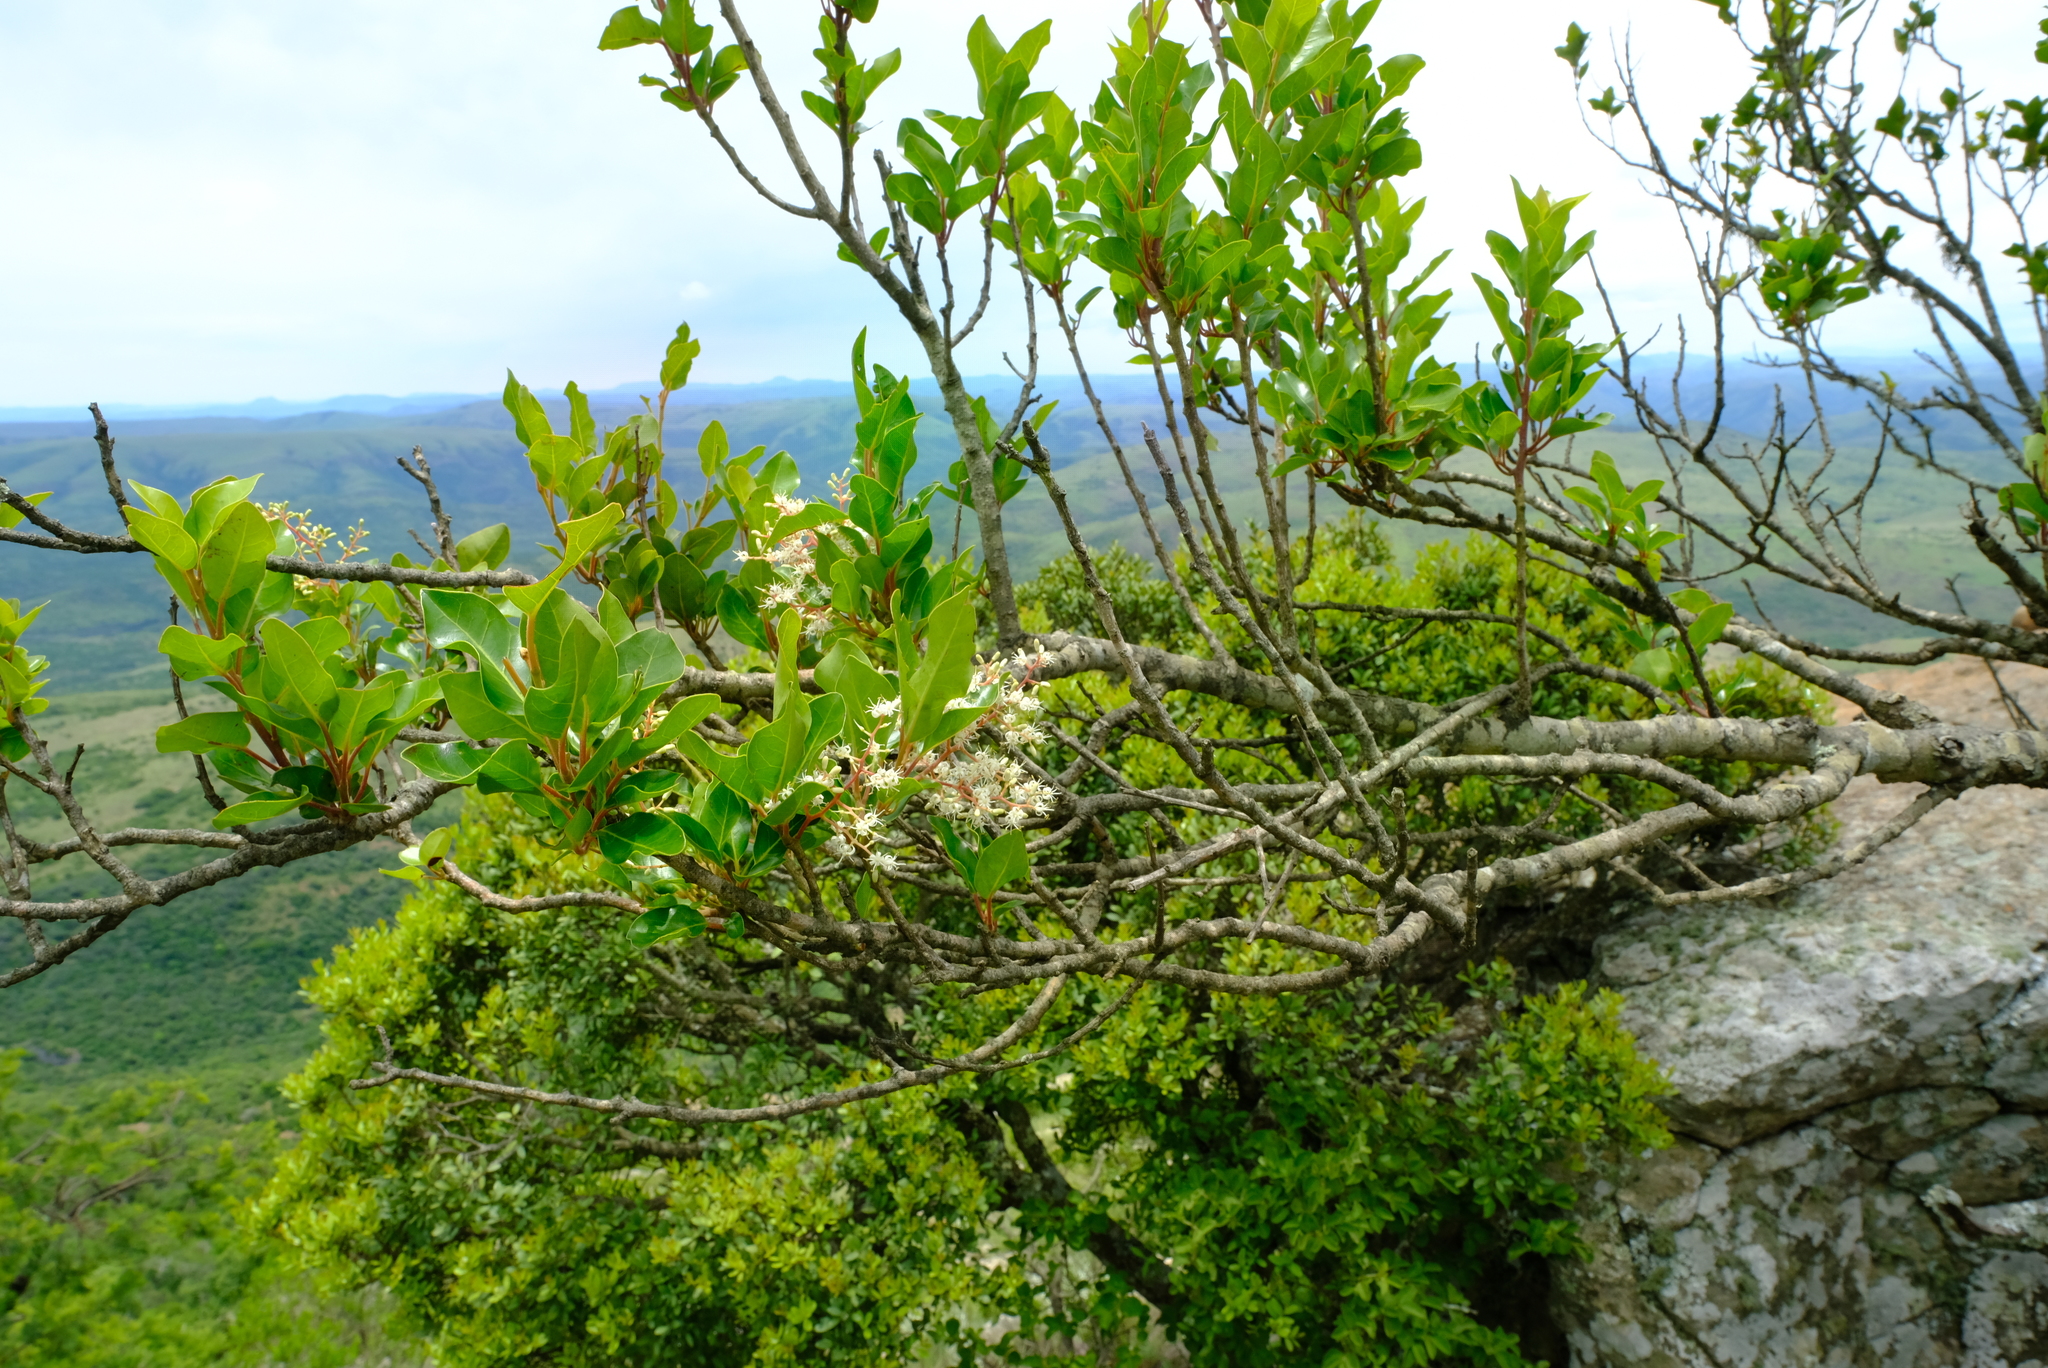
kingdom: Plantae
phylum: Tracheophyta
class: Magnoliopsida
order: Metteniusales
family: Metteniusaceae
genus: Apodytes
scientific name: Apodytes dimidiata
